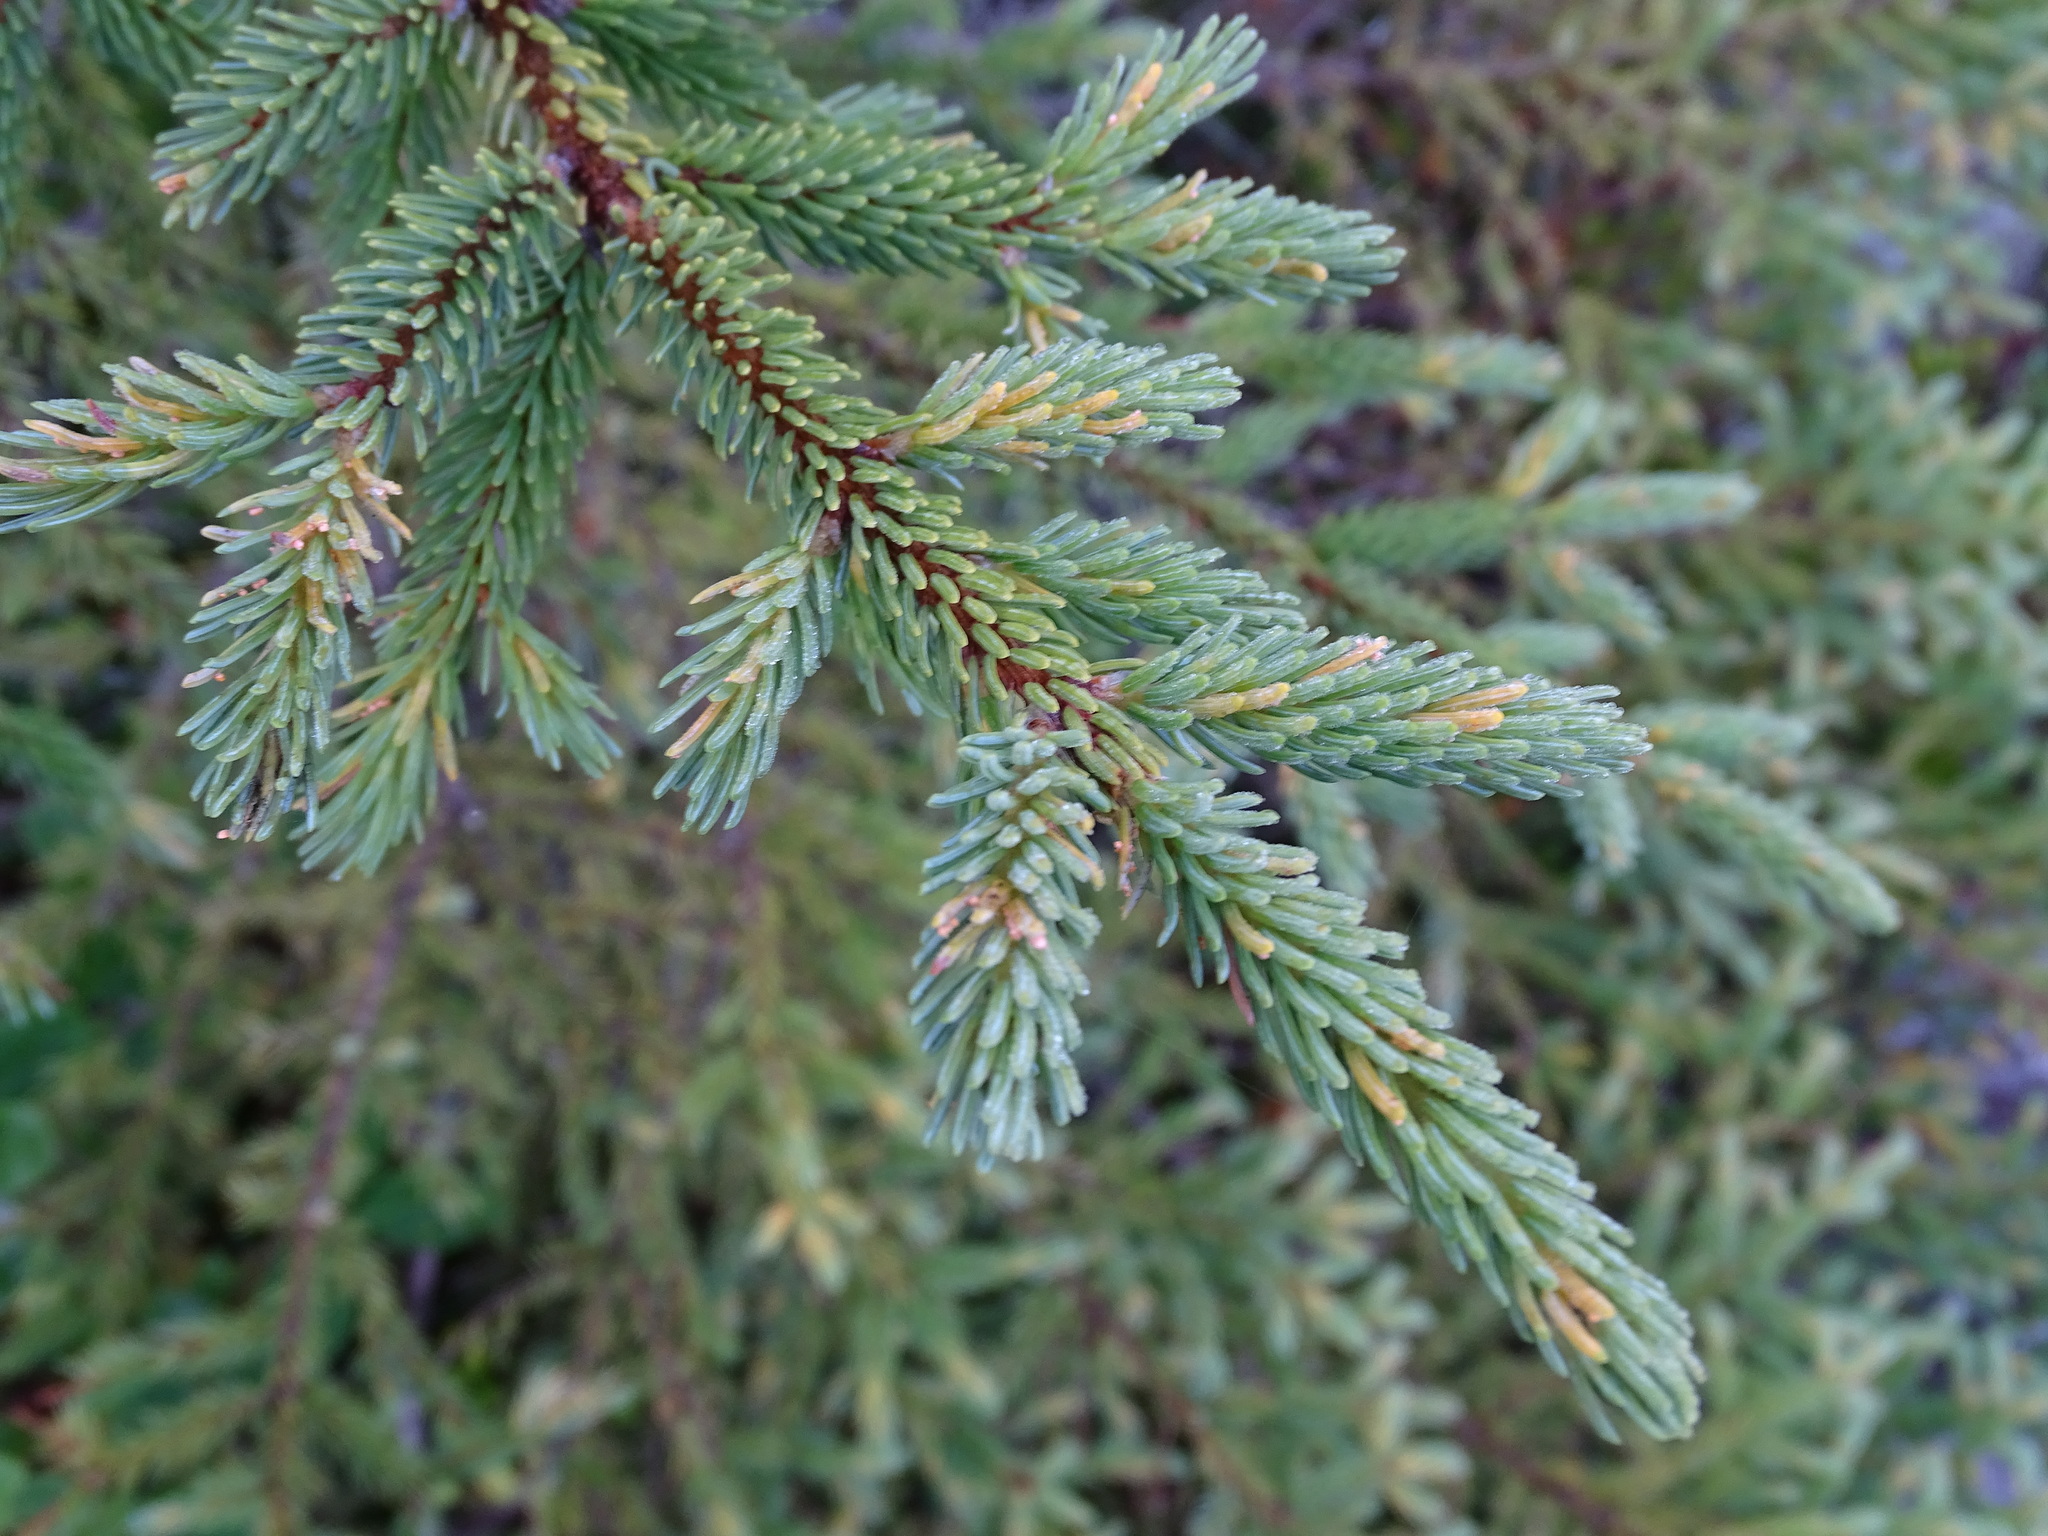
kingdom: Plantae
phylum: Tracheophyta
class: Pinopsida
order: Pinales
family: Pinaceae
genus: Picea
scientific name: Picea mariana
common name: Black spruce
